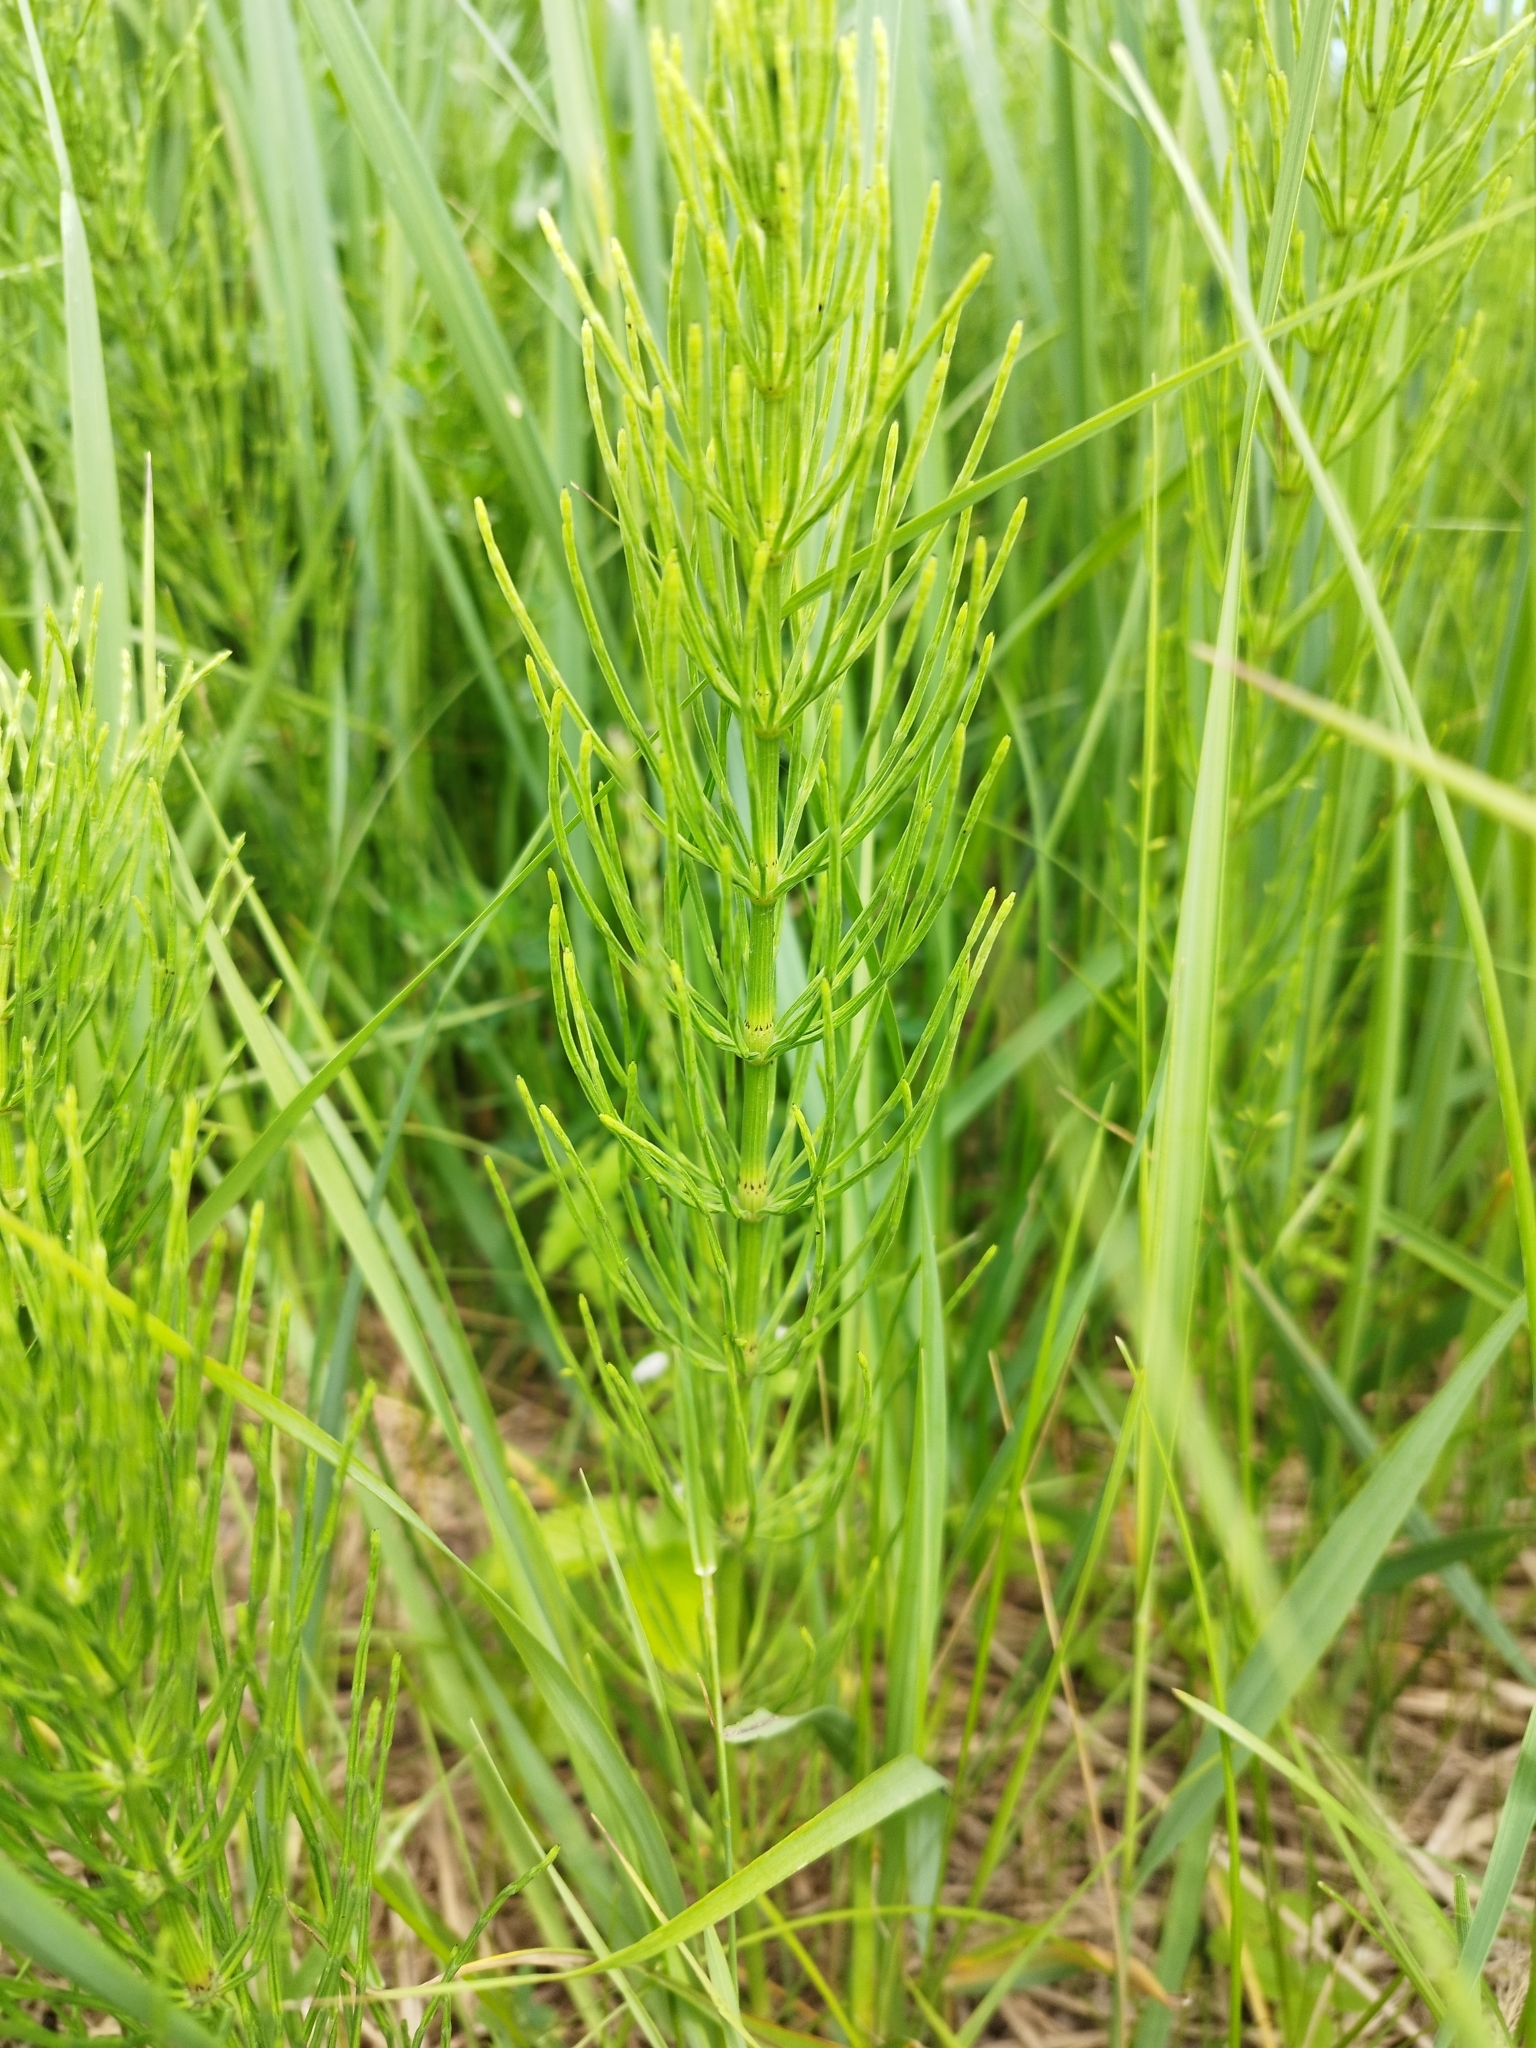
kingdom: Plantae
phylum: Tracheophyta
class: Polypodiopsida
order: Equisetales
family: Equisetaceae
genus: Equisetum
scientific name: Equisetum arvense
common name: Field horsetail
